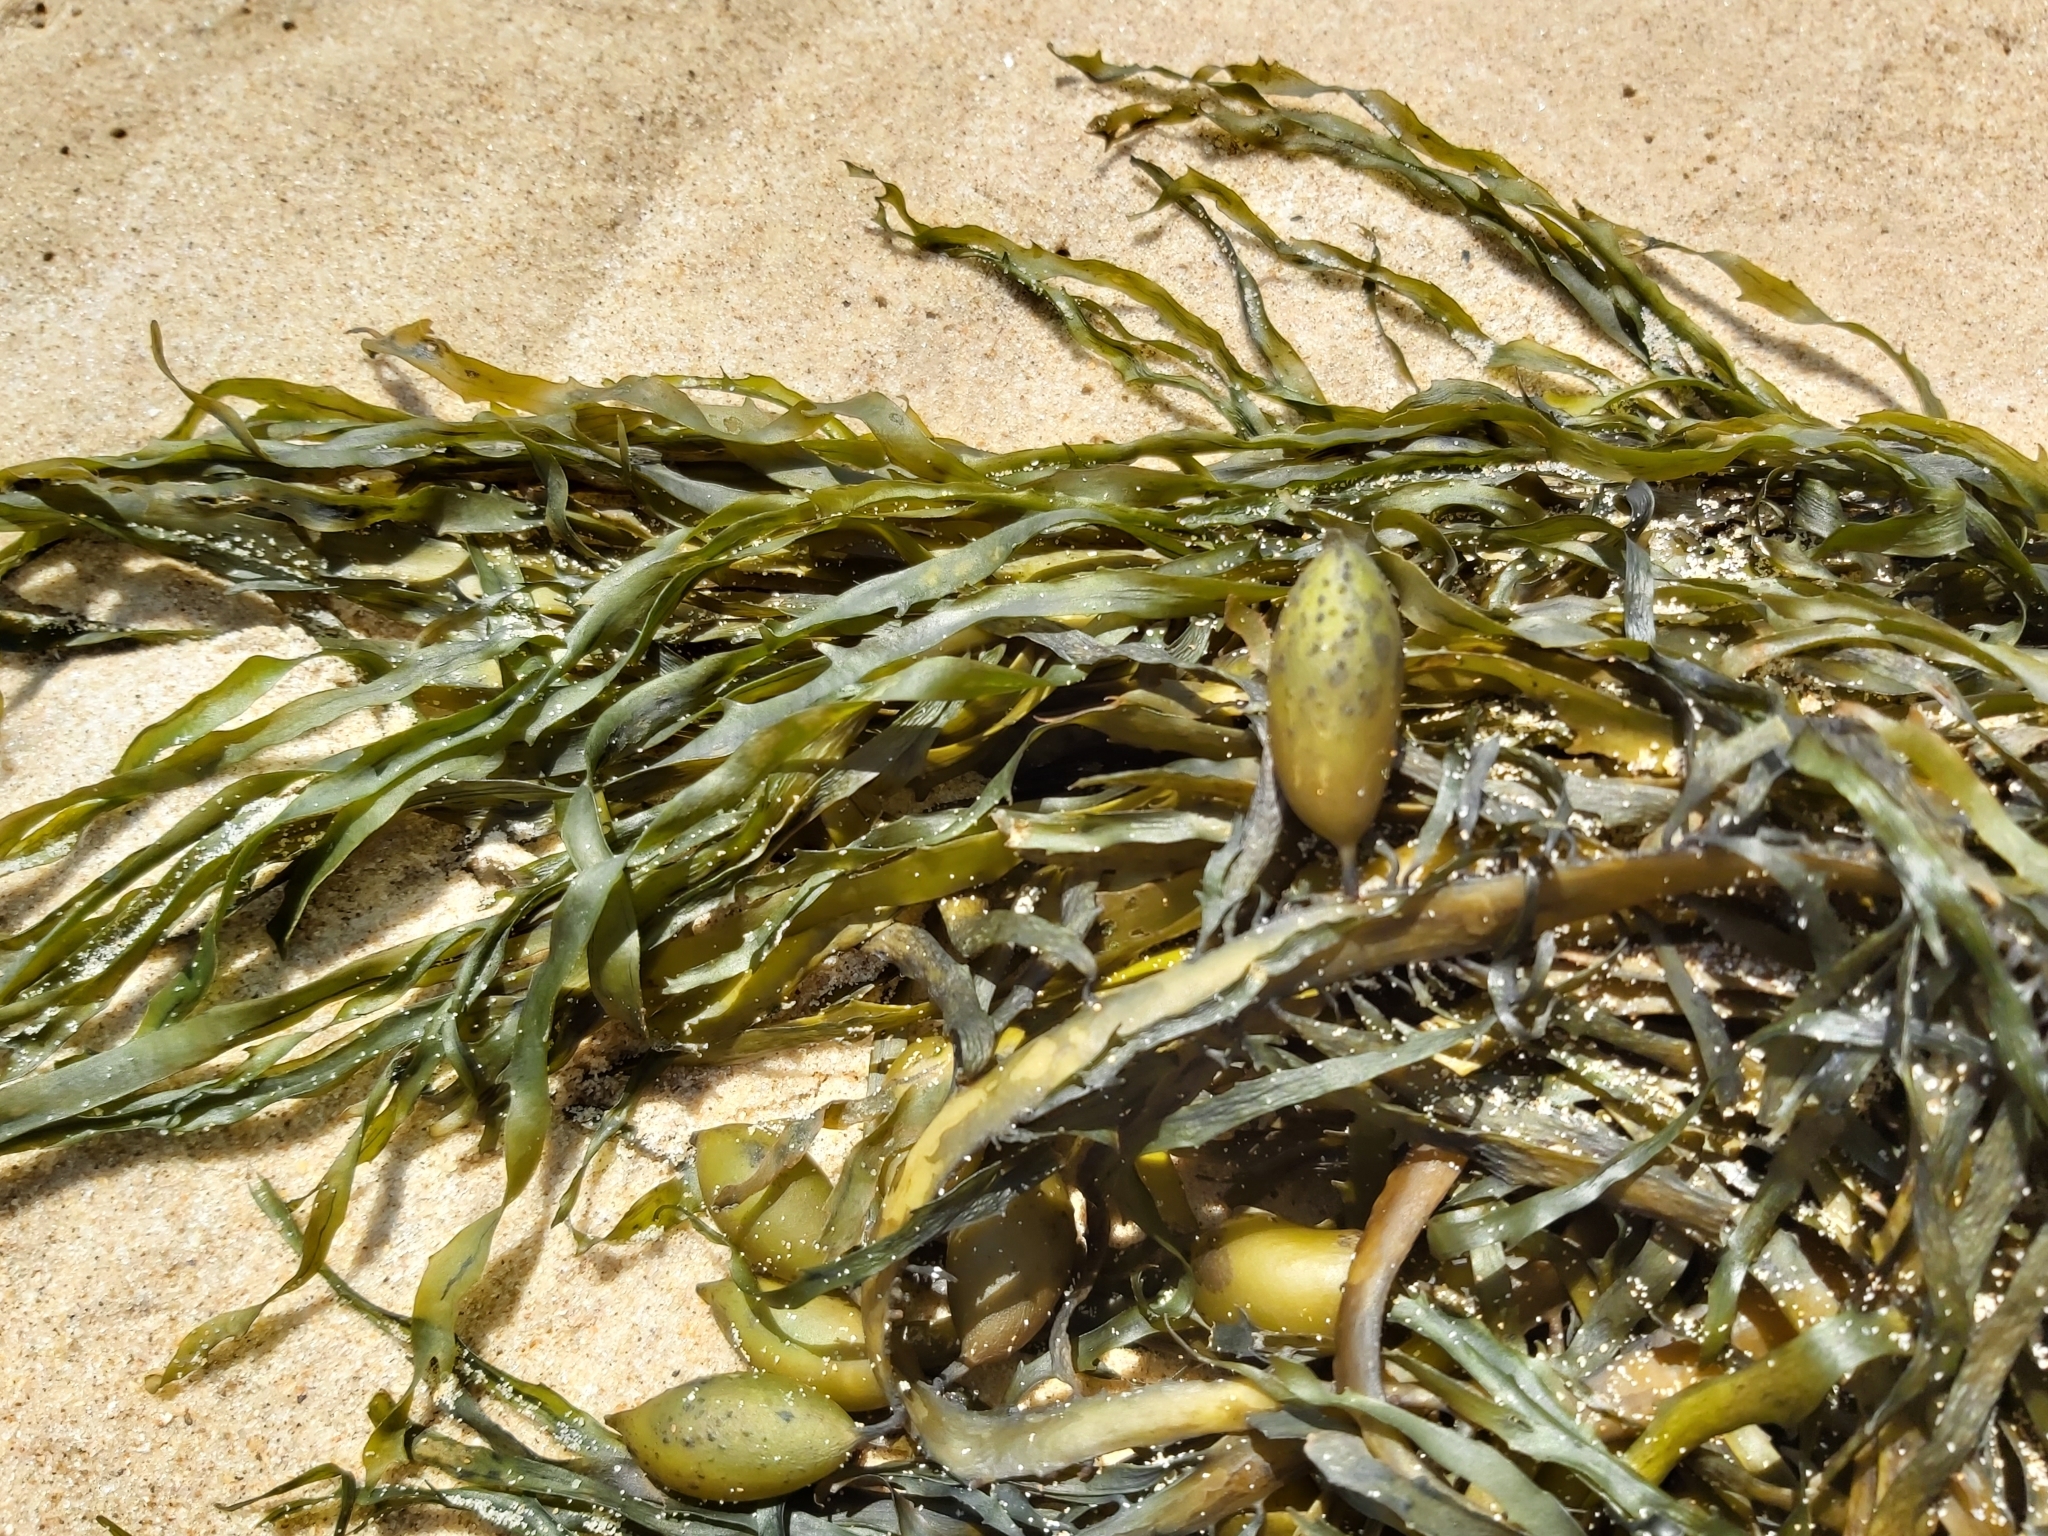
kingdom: Chromista
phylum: Ochrophyta
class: Phaeophyceae
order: Fucales
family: Seirococcaceae
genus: Phyllospora
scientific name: Phyllospora
